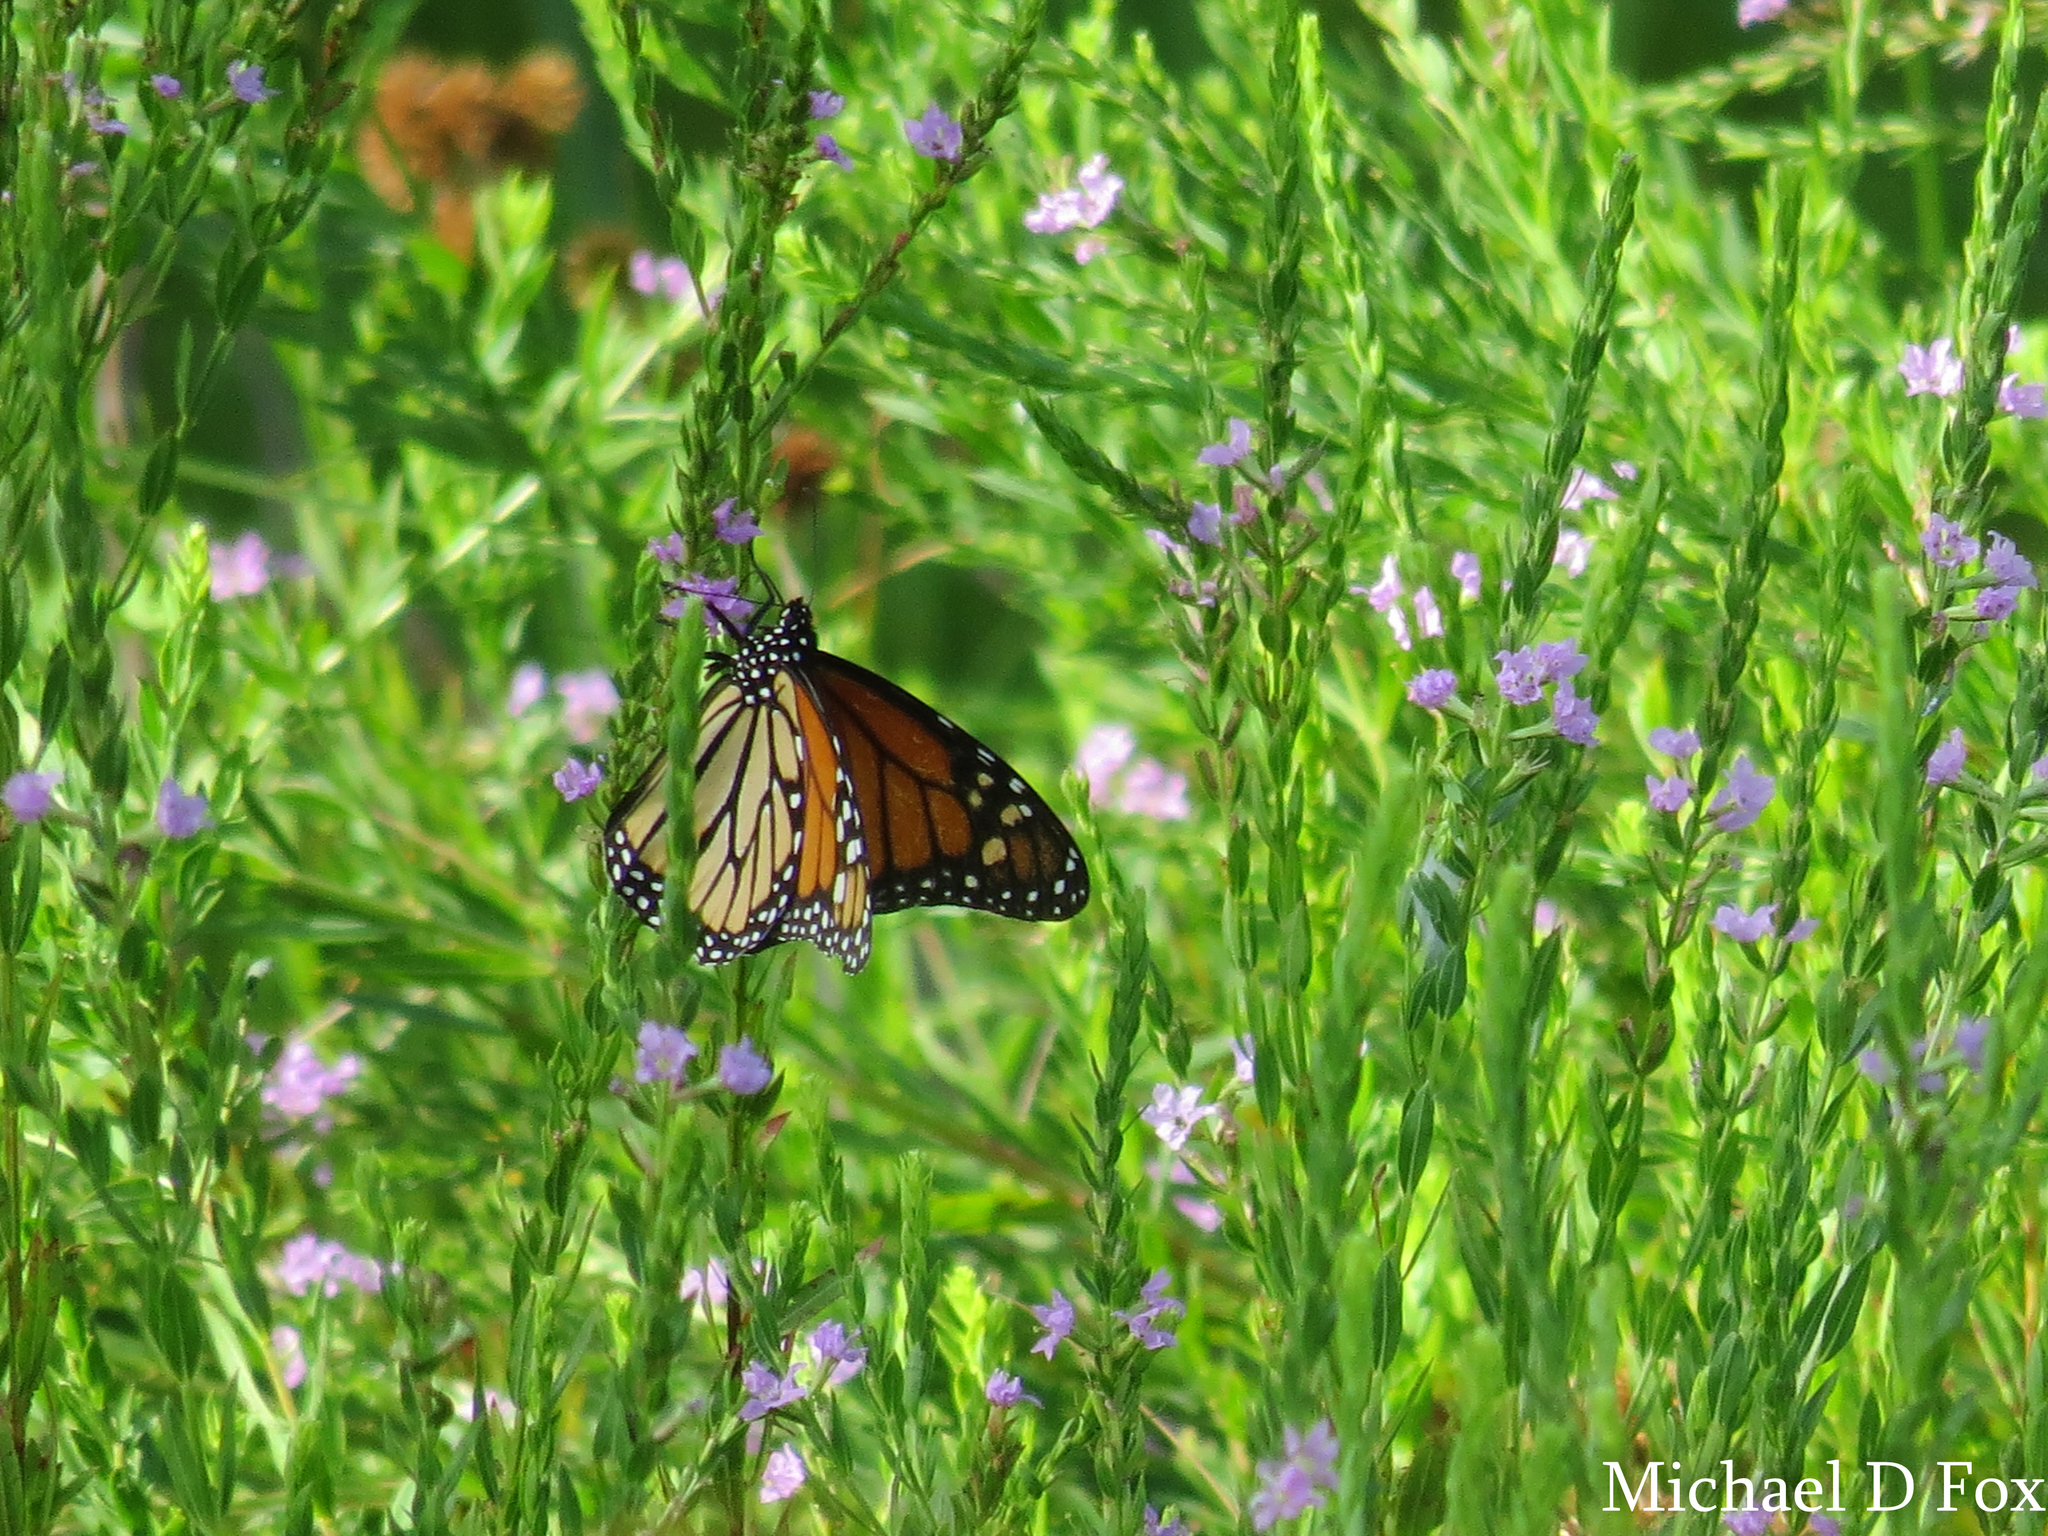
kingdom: Animalia
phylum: Arthropoda
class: Insecta
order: Lepidoptera
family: Nymphalidae
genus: Danaus
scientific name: Danaus plexippus
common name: Monarch
